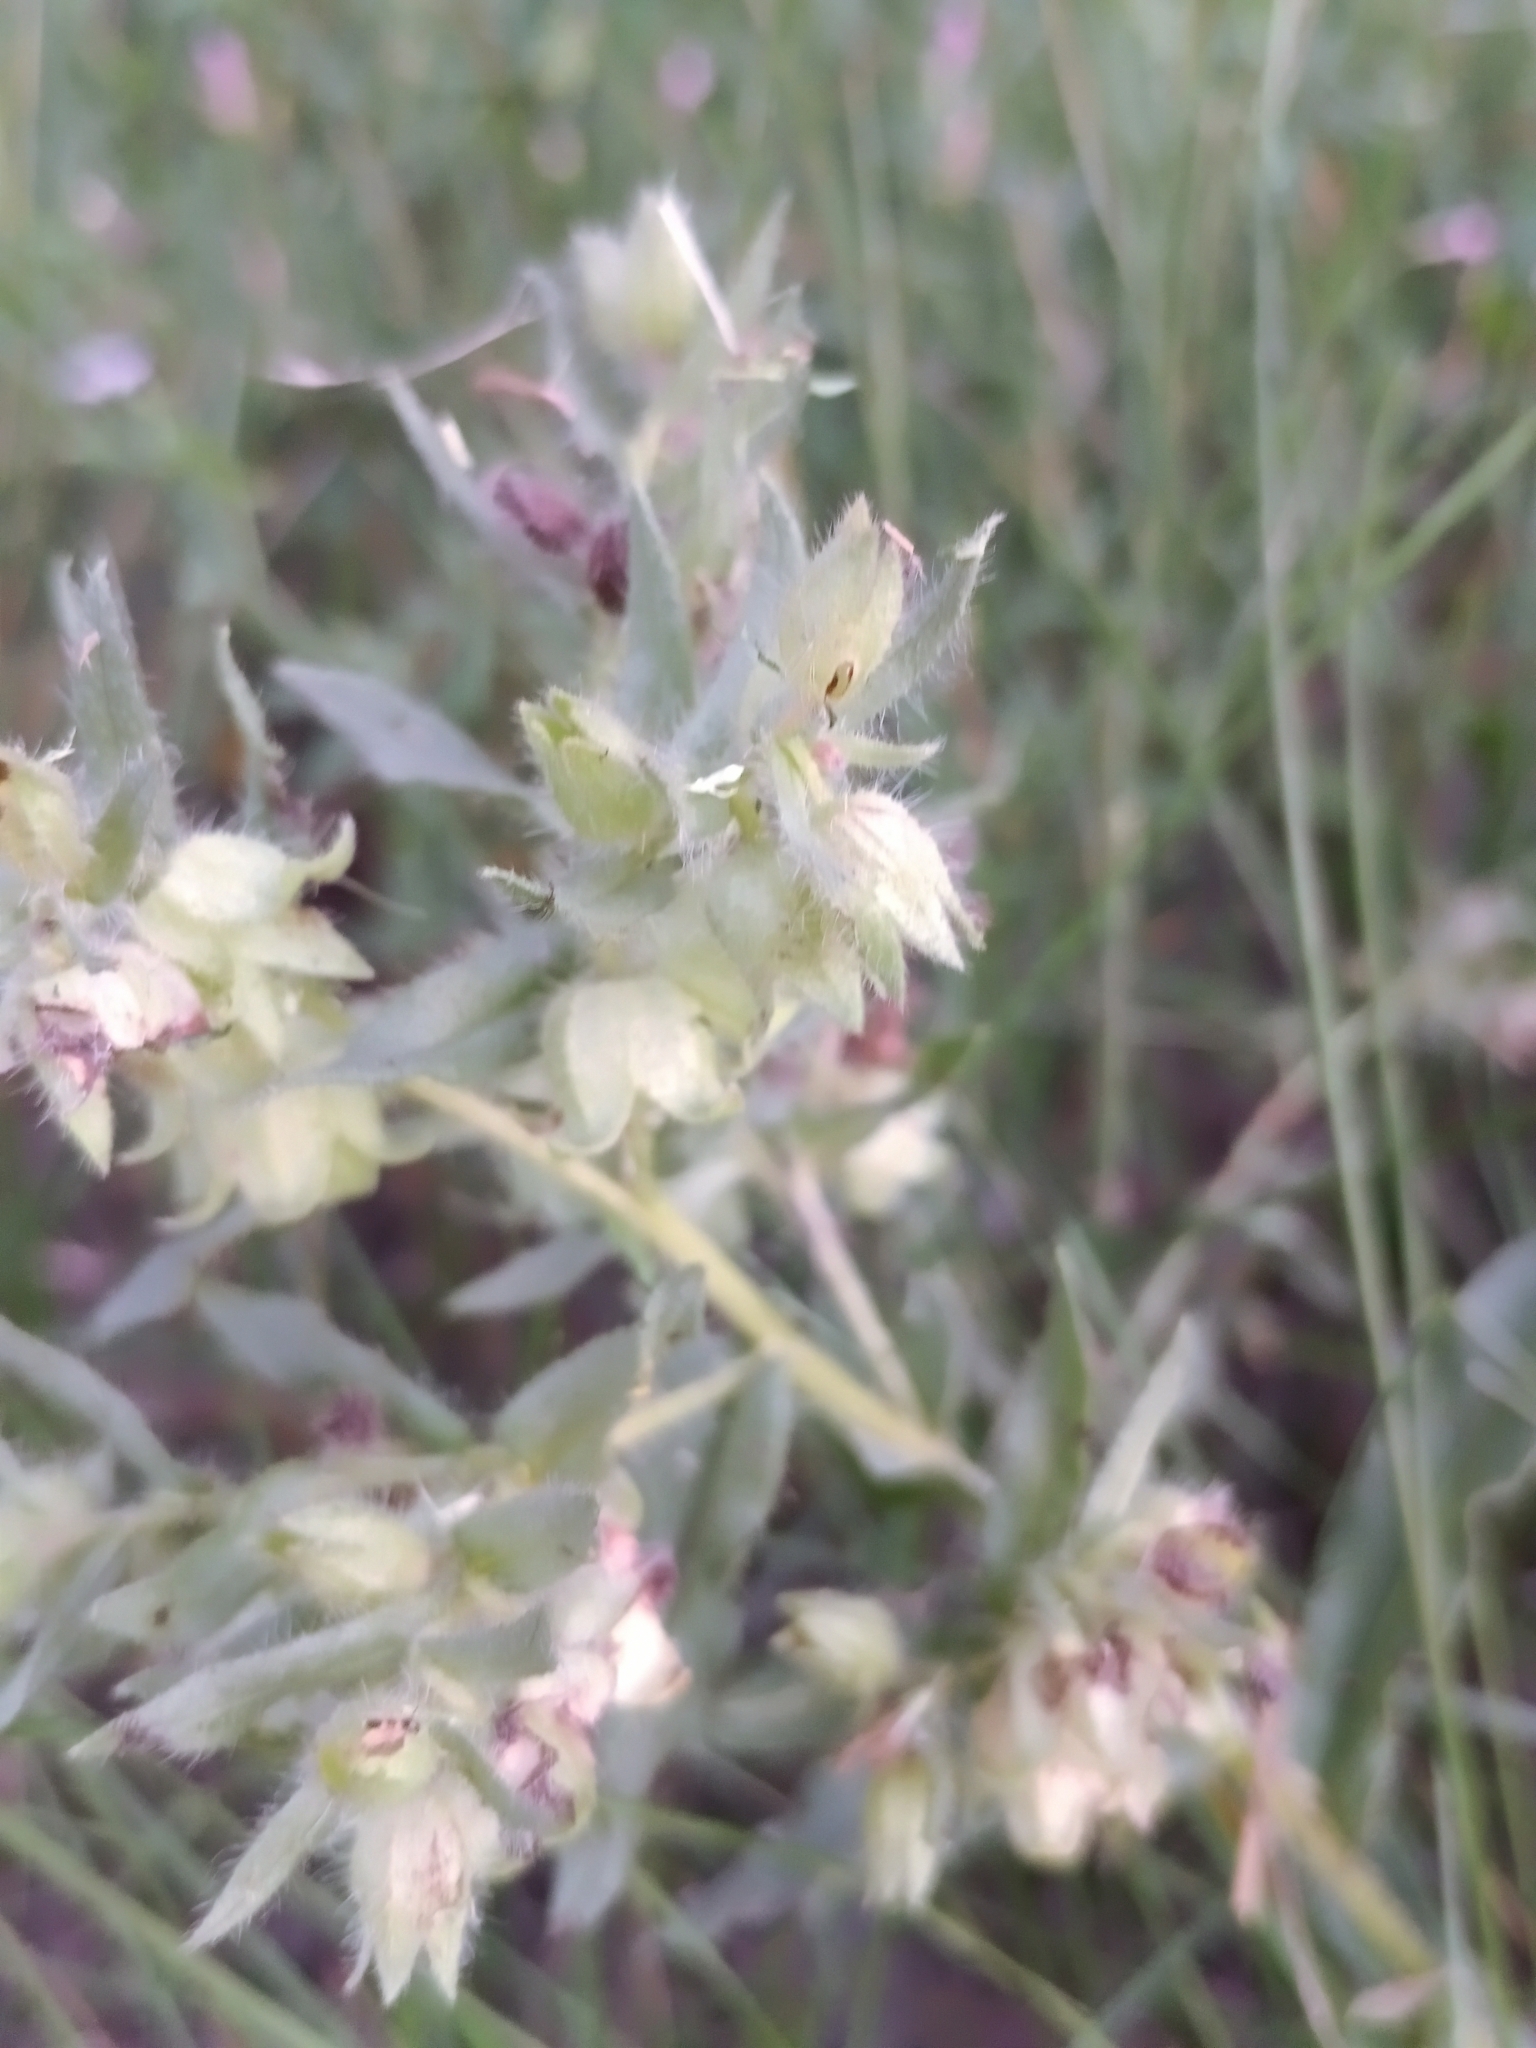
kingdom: Plantae
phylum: Tracheophyta
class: Magnoliopsida
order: Boraginales
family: Boraginaceae
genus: Nonea
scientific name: Nonea pulla
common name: Brown nonea
